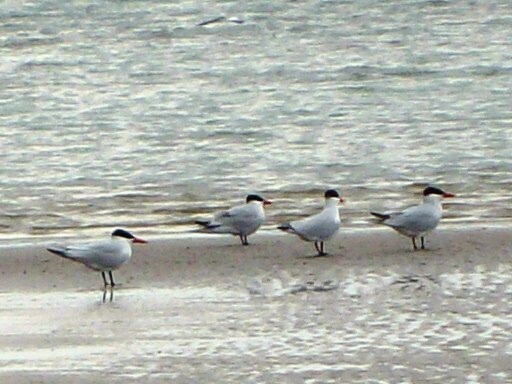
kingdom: Animalia
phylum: Chordata
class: Aves
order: Charadriiformes
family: Laridae
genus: Hydroprogne
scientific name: Hydroprogne caspia
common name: Caspian tern
